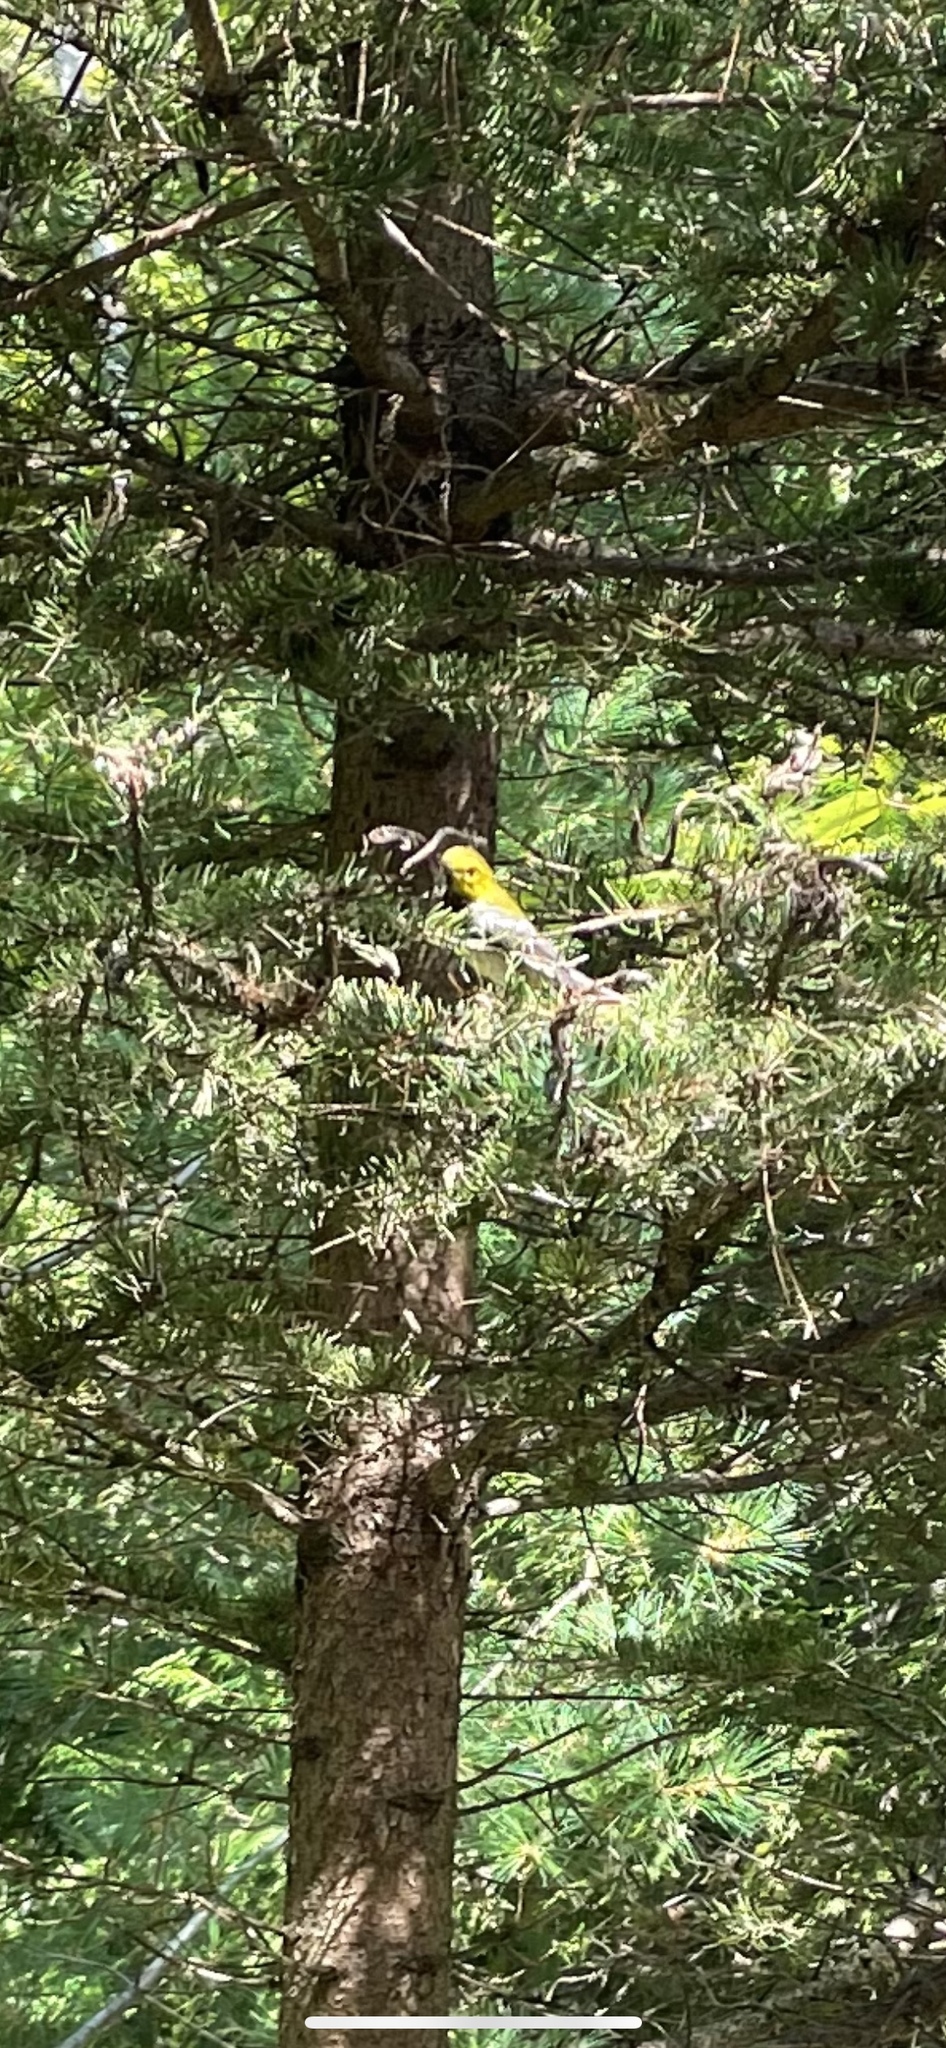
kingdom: Animalia
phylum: Chordata
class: Aves
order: Passeriformes
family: Parulidae
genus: Setophaga
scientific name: Setophaga virens
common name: Black-throated green warbler
